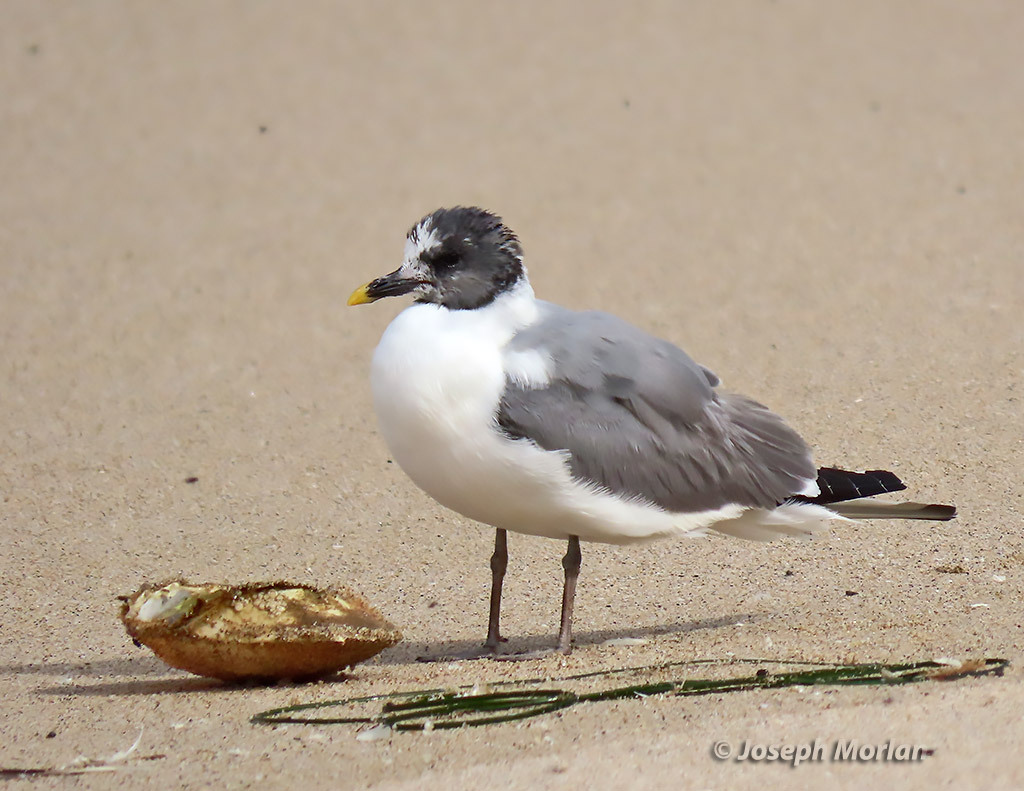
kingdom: Animalia
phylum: Chordata
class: Aves
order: Charadriiformes
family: Laridae
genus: Xema
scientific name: Xema sabini
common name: Sabine's gull
